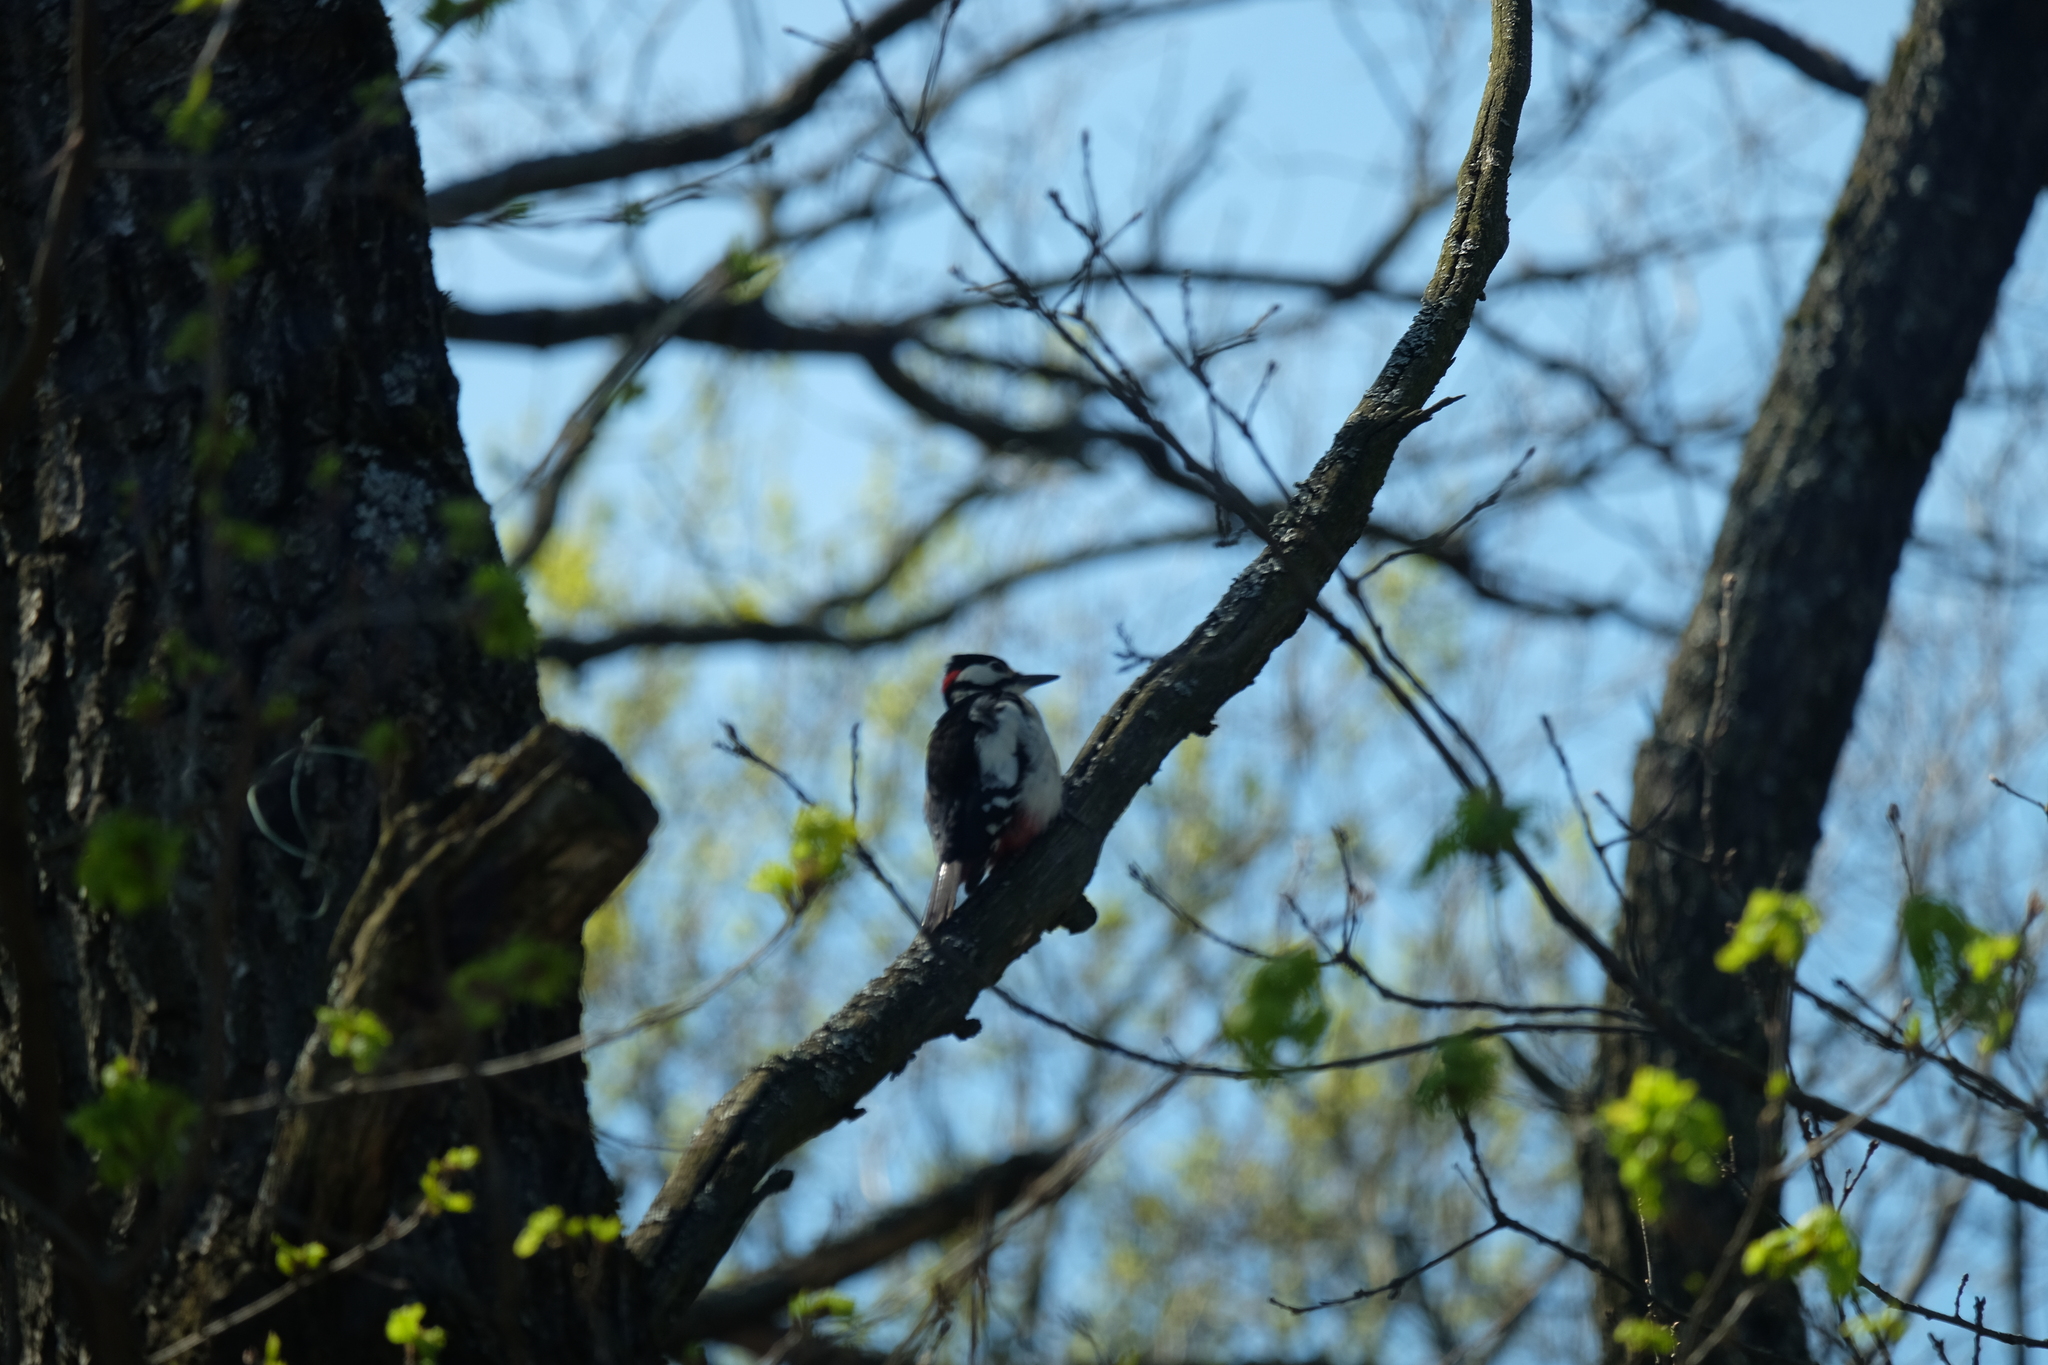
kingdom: Animalia
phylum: Chordata
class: Aves
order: Piciformes
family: Picidae
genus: Dendrocopos
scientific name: Dendrocopos major
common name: Great spotted woodpecker
